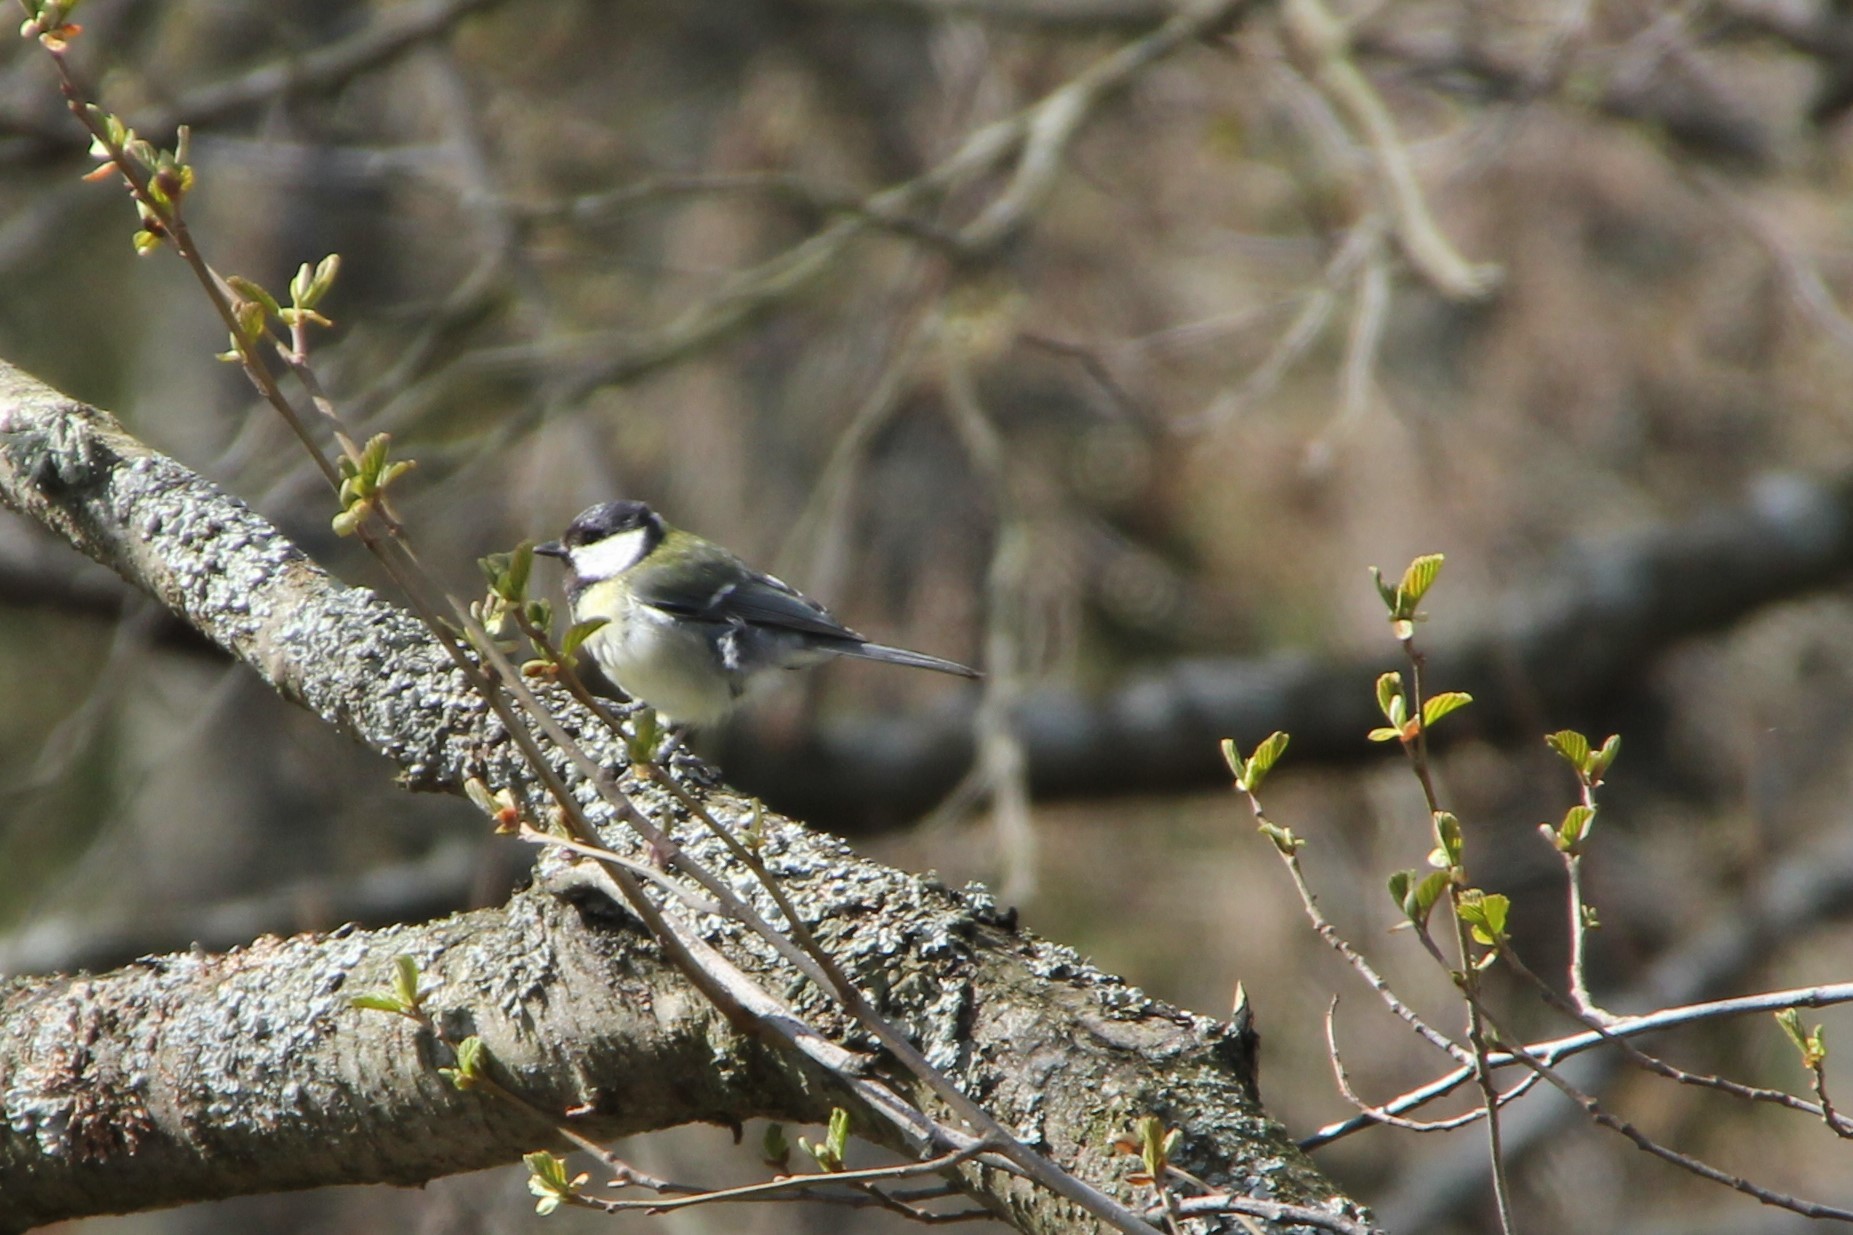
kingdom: Animalia
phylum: Chordata
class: Aves
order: Passeriformes
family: Paridae
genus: Parus
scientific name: Parus major
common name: Great tit
